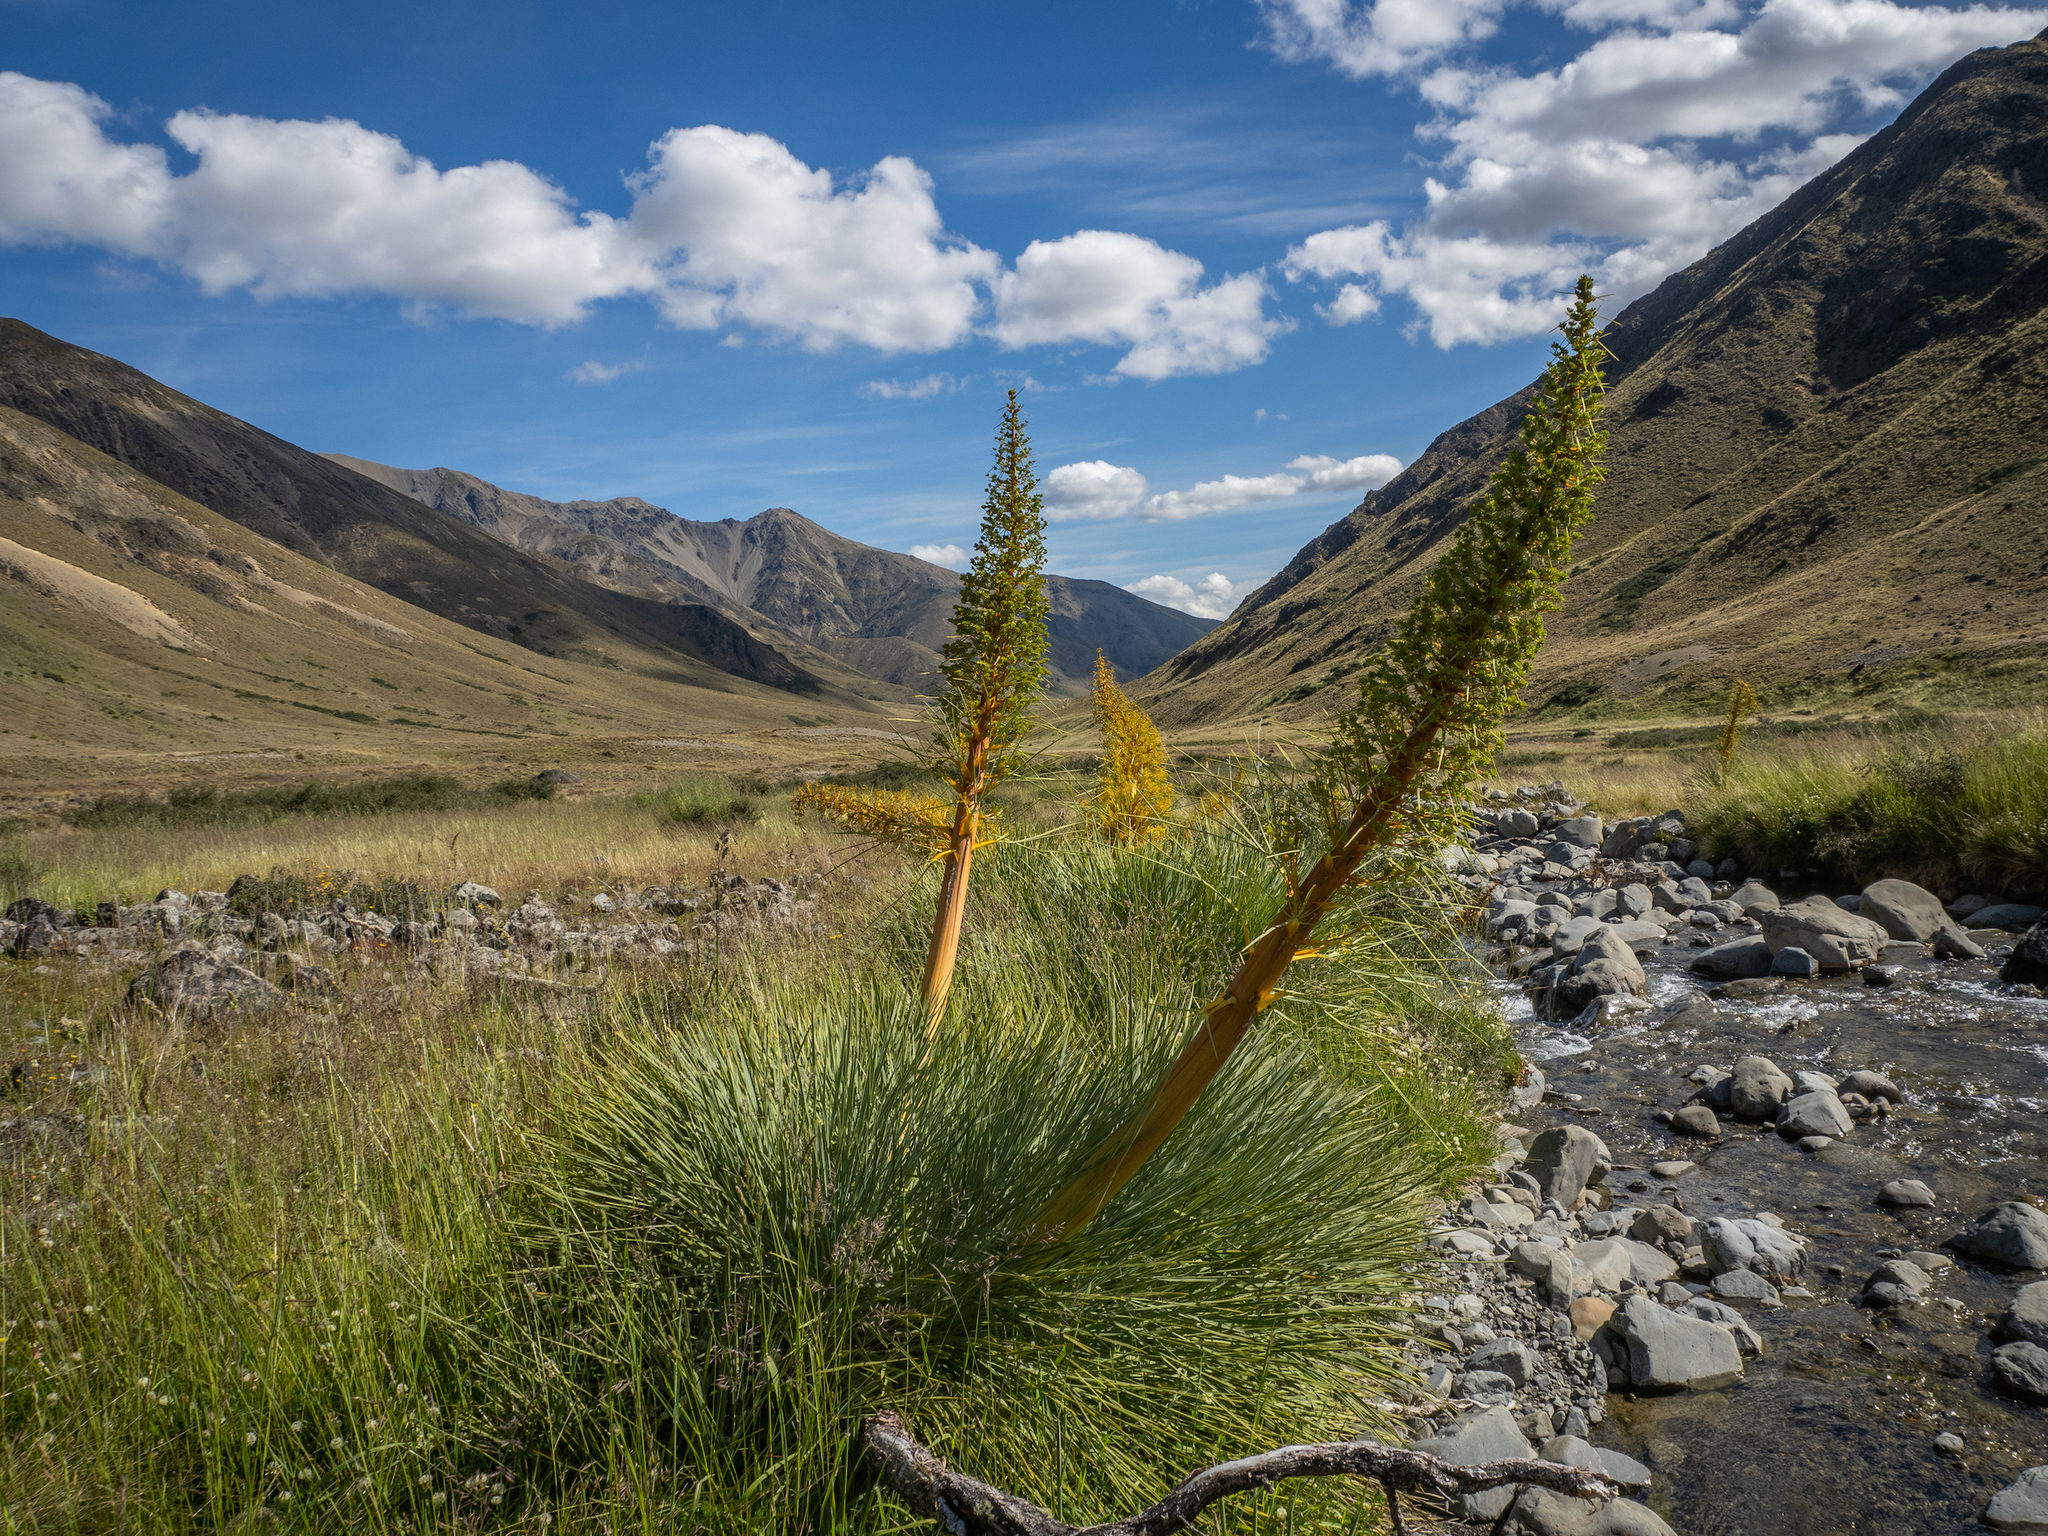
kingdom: Plantae
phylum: Tracheophyta
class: Magnoliopsida
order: Apiales
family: Apiaceae
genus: Aciphylla
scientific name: Aciphylla glaucescens
